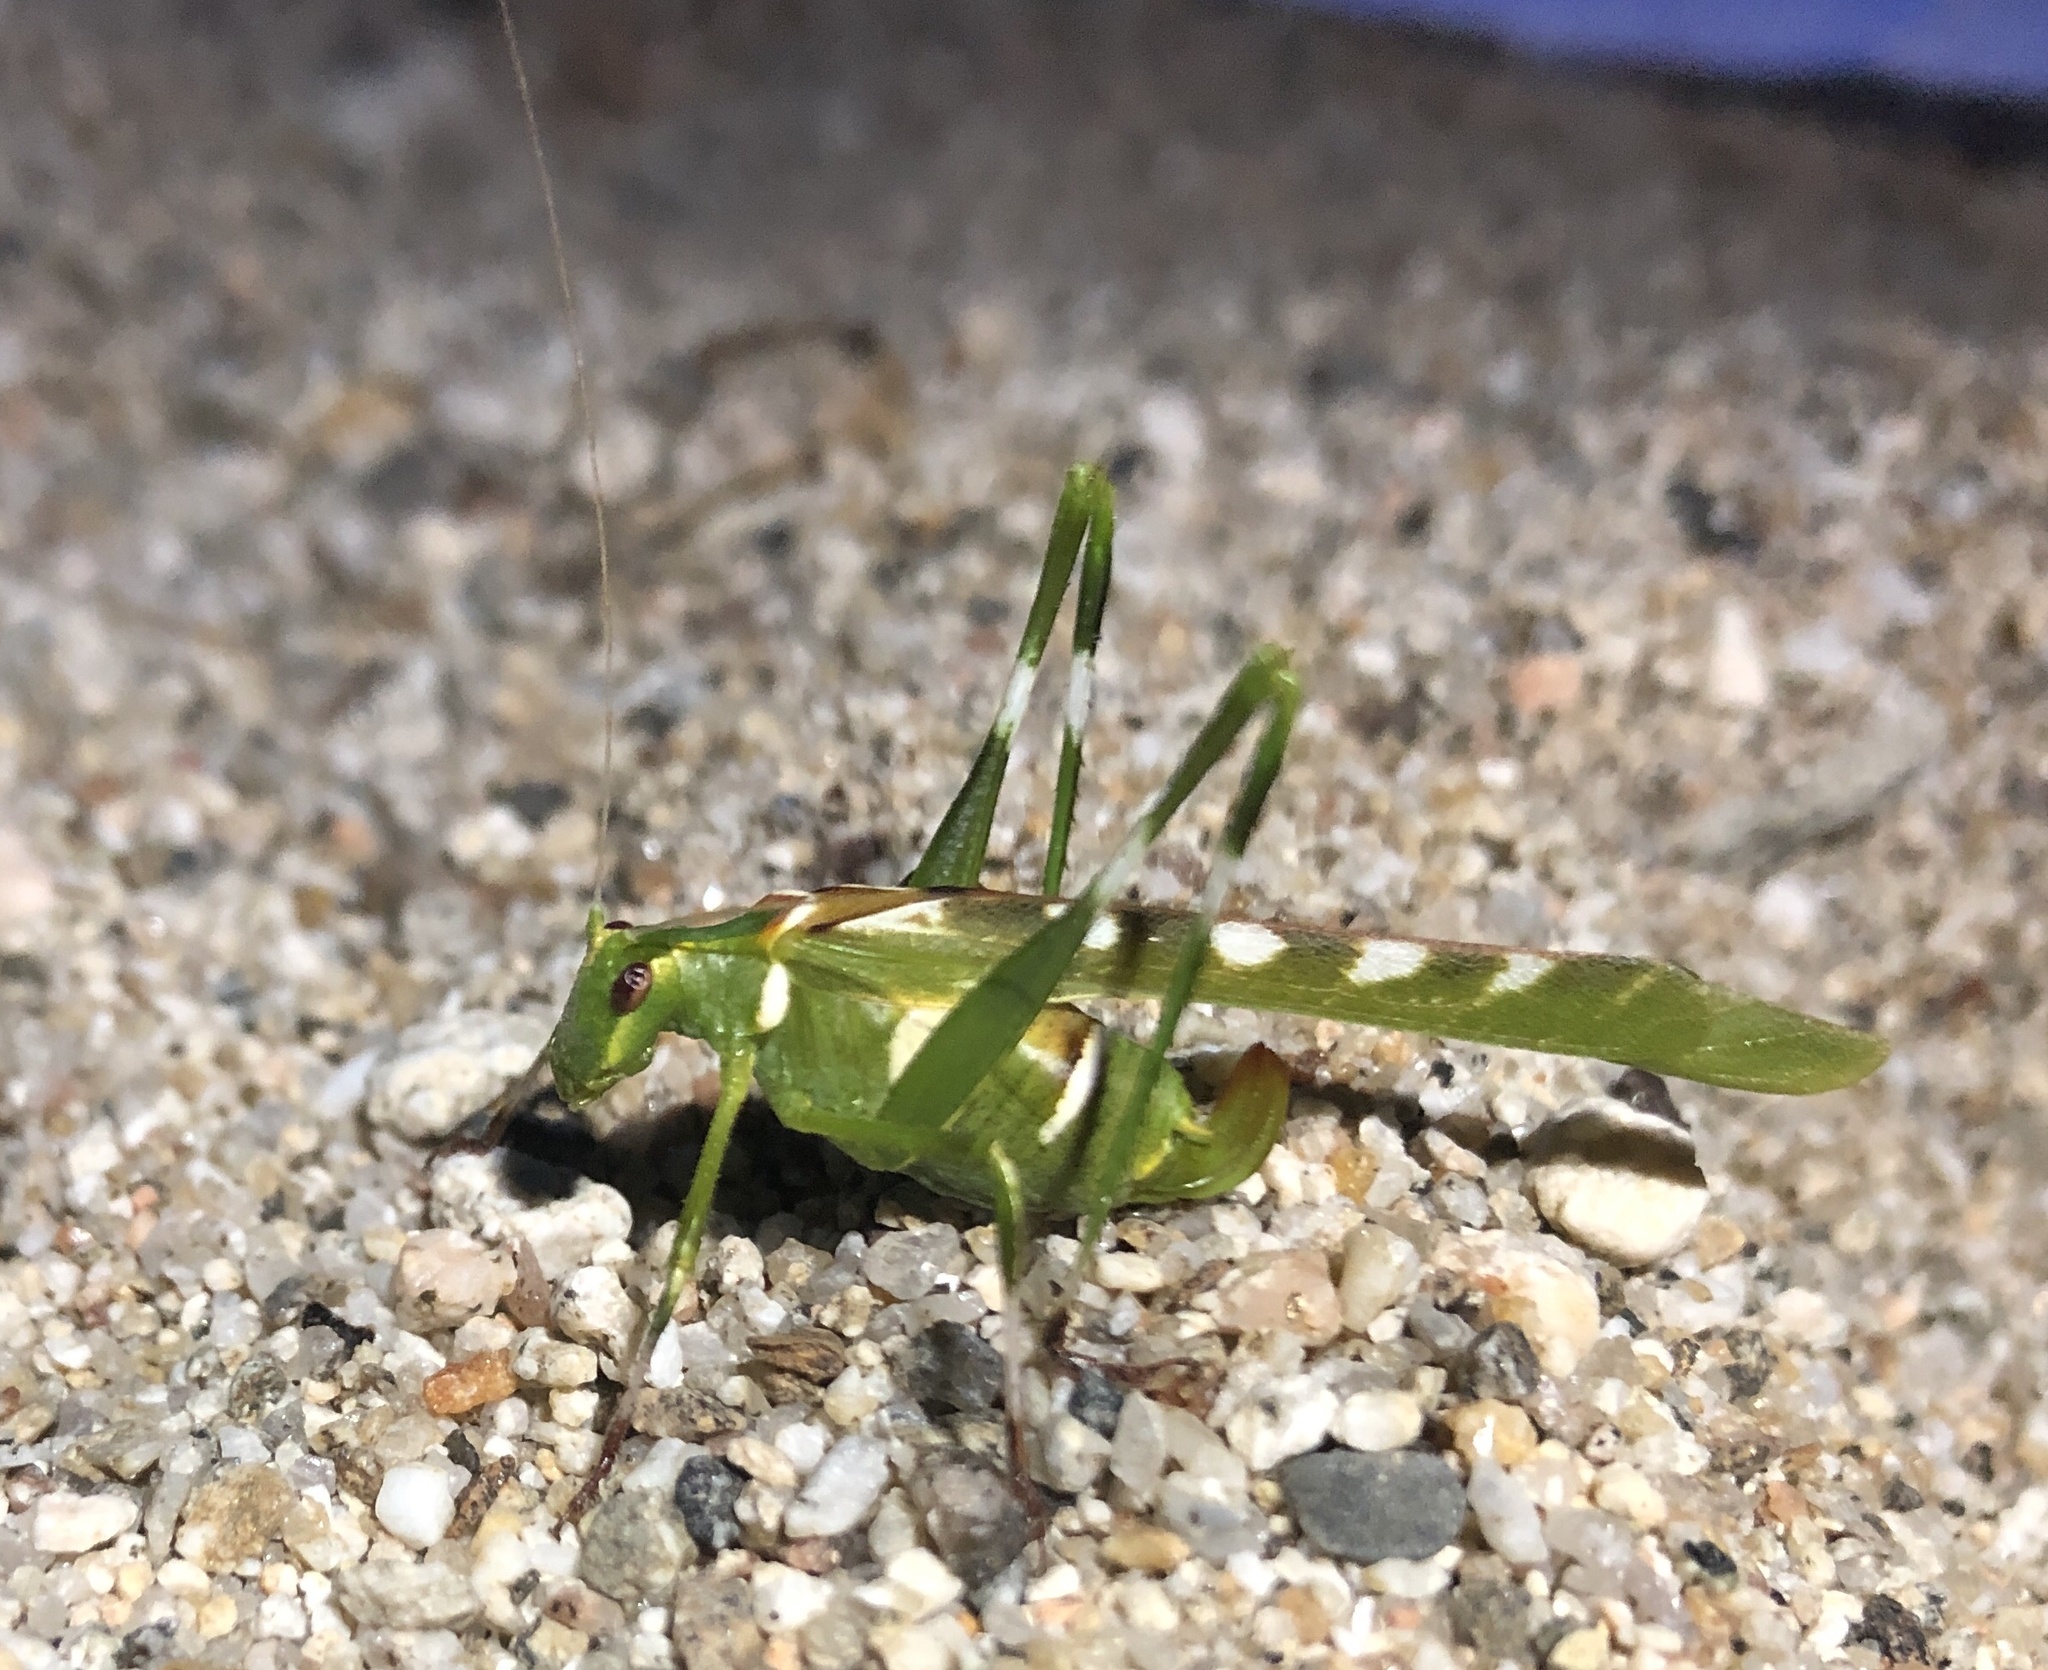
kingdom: Animalia
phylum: Arthropoda
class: Insecta
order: Orthoptera
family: Tettigoniidae
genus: Insara
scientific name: Insara covilleae
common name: Creosote bush katydid
